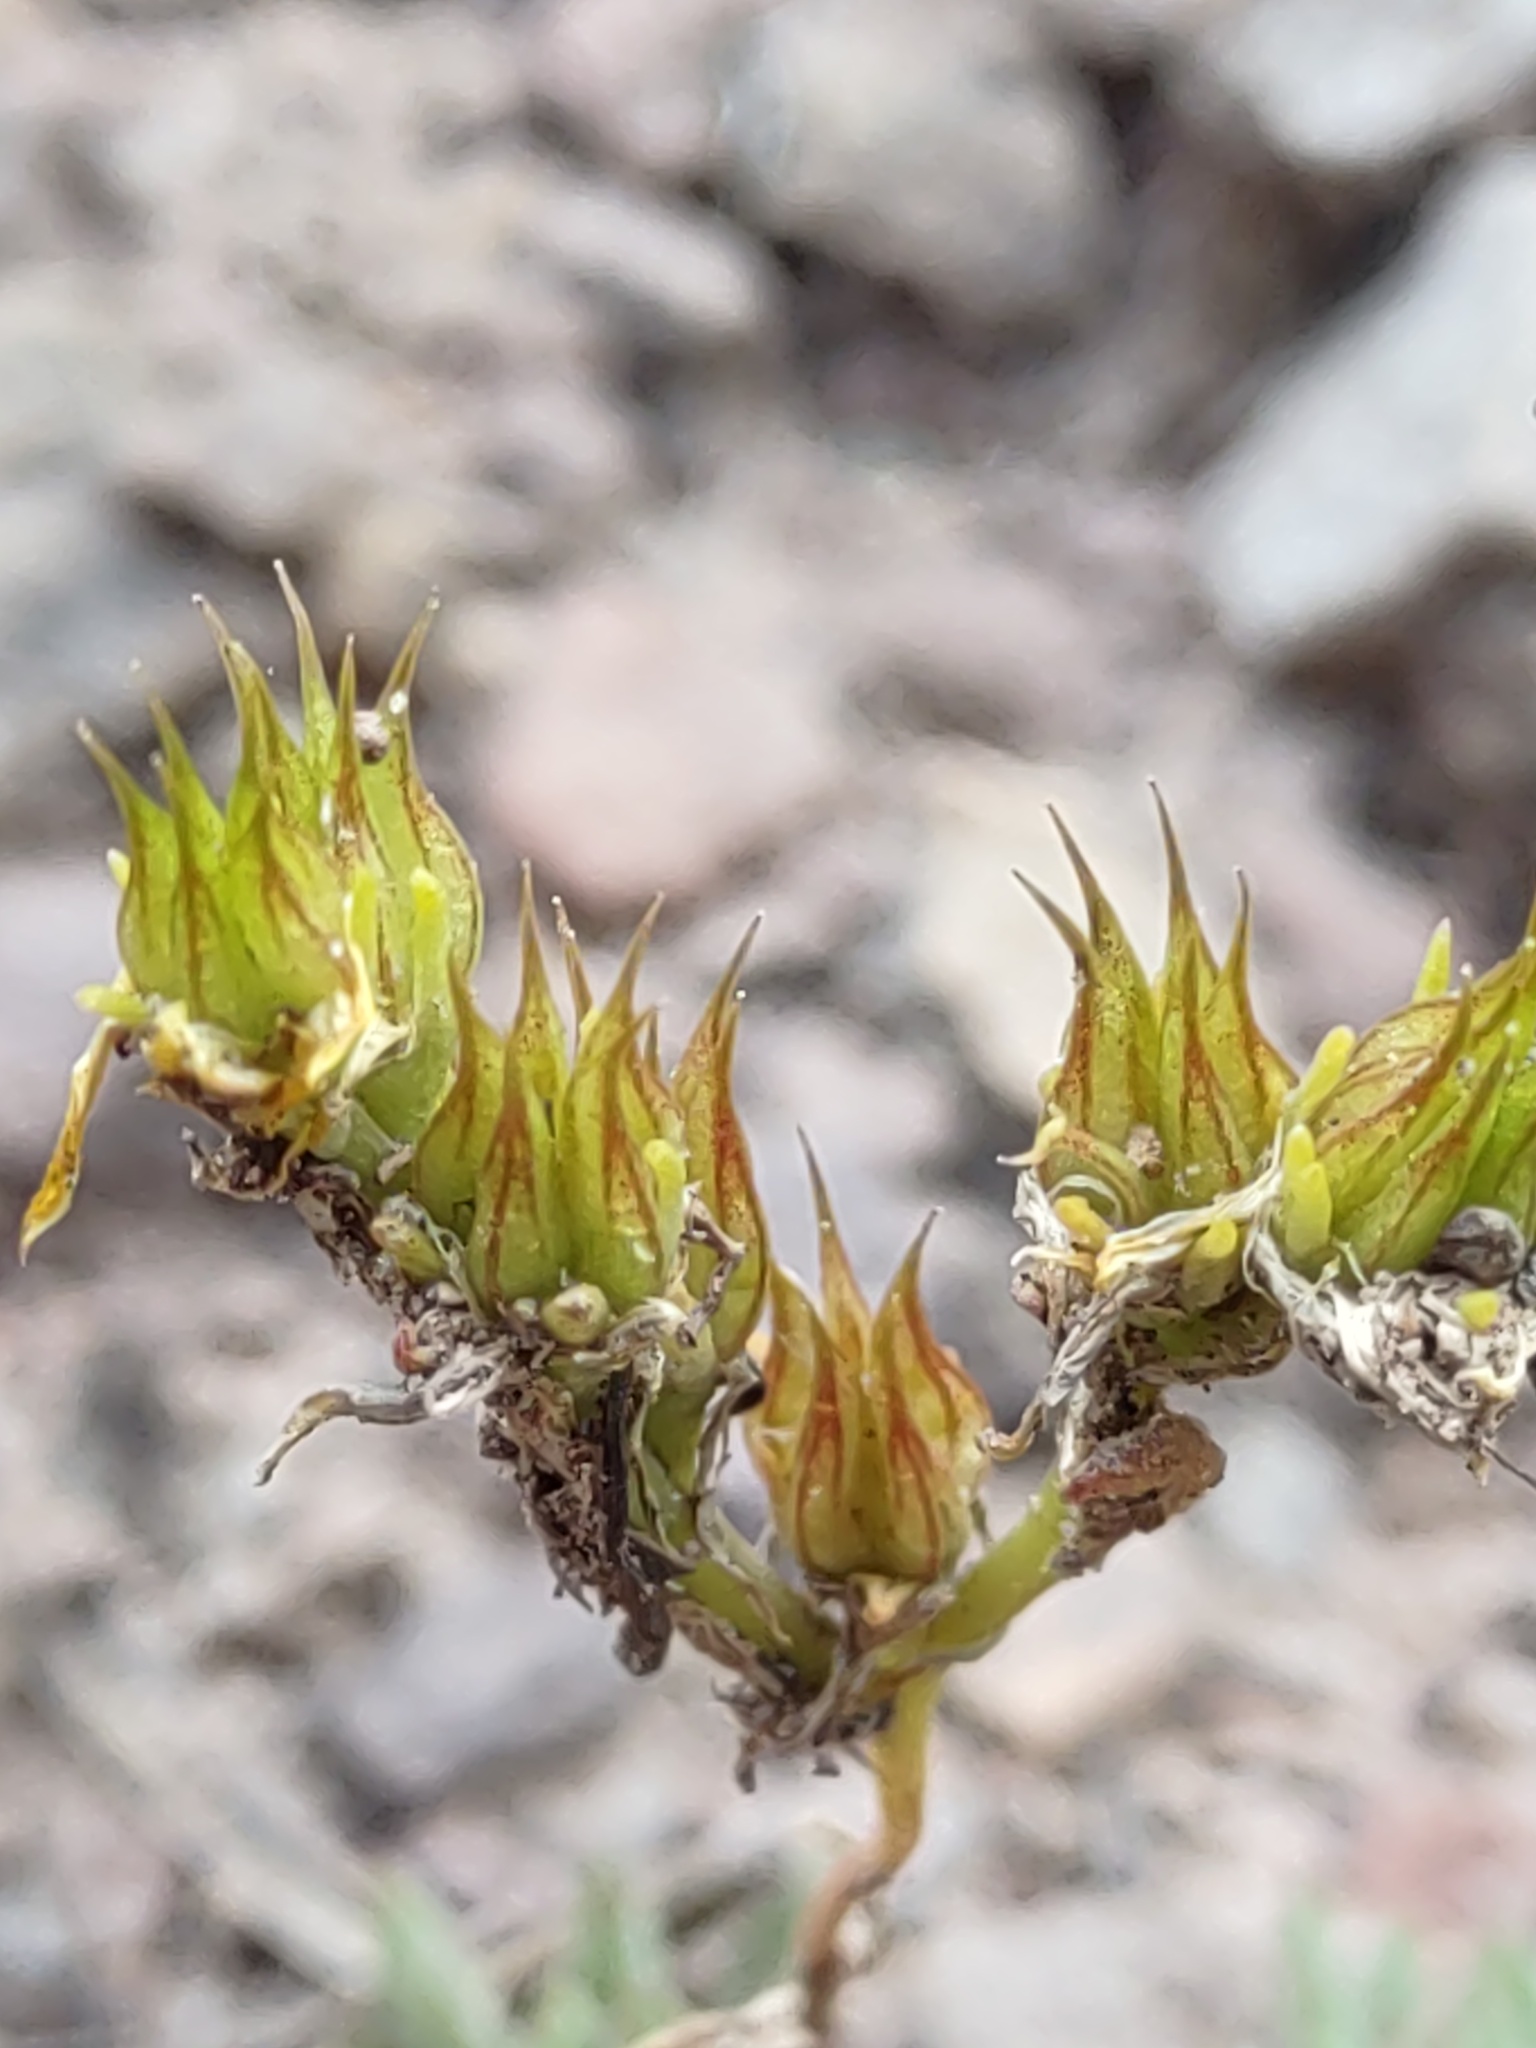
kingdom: Plantae
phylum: Tracheophyta
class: Magnoliopsida
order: Saxifragales
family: Crassulaceae
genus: Sedum
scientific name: Sedum lanceolatum
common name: Common stonecrop
